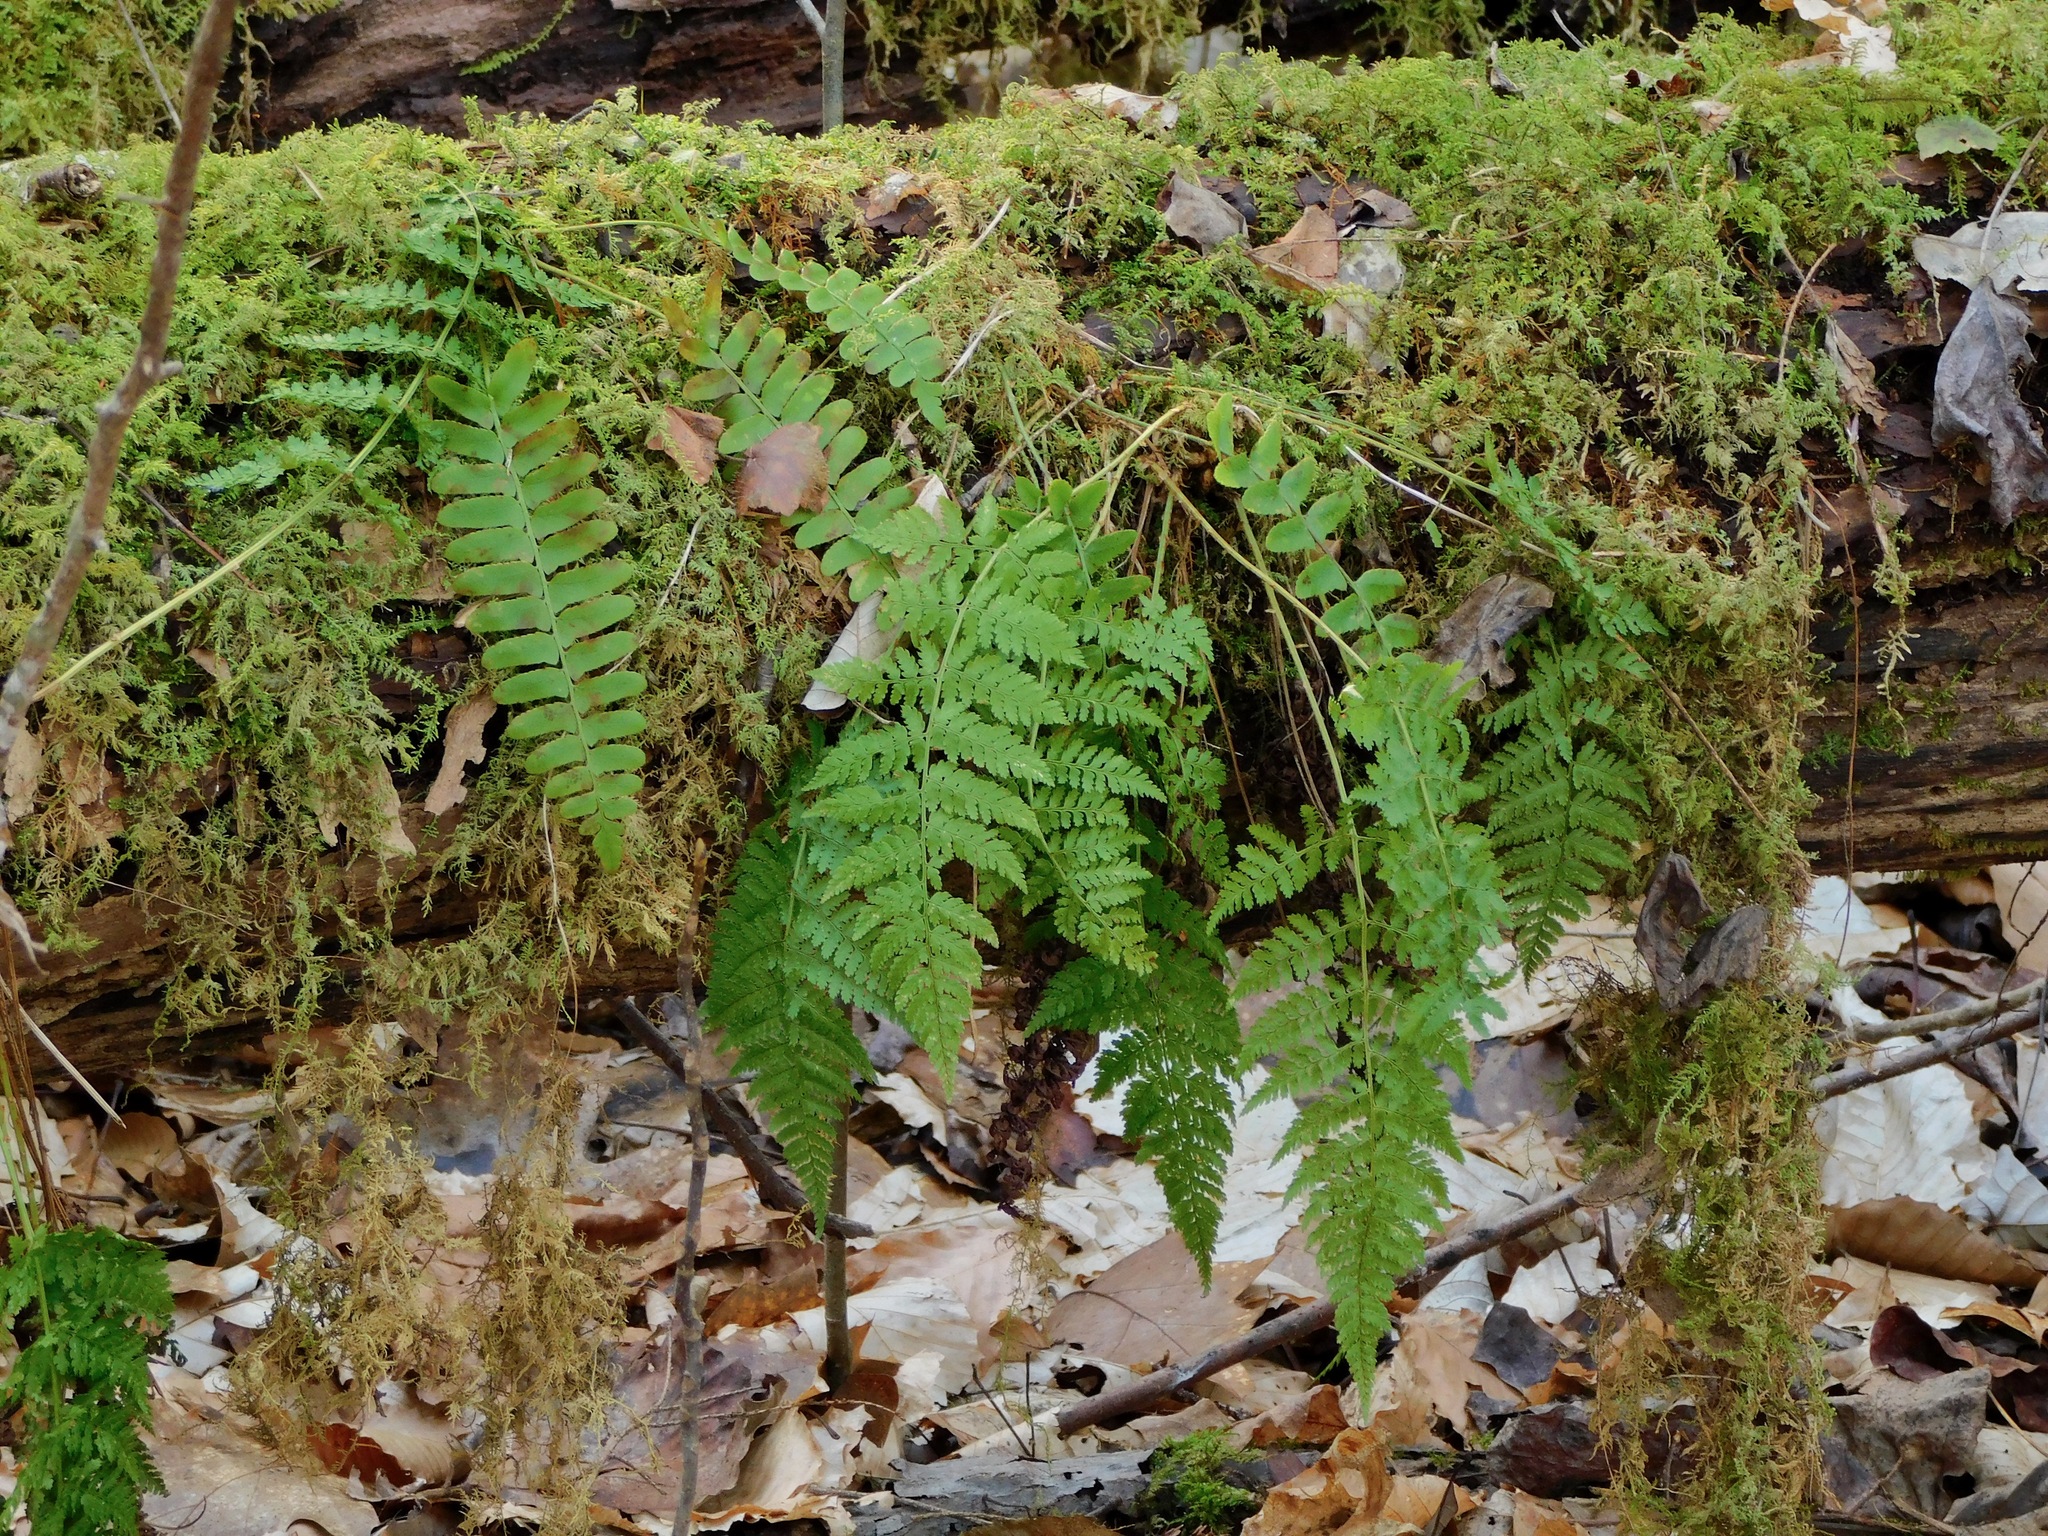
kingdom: Plantae
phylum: Tracheophyta
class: Polypodiopsida
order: Polypodiales
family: Dryopteridaceae
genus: Polystichum
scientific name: Polystichum acrostichoides
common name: Christmas fern
